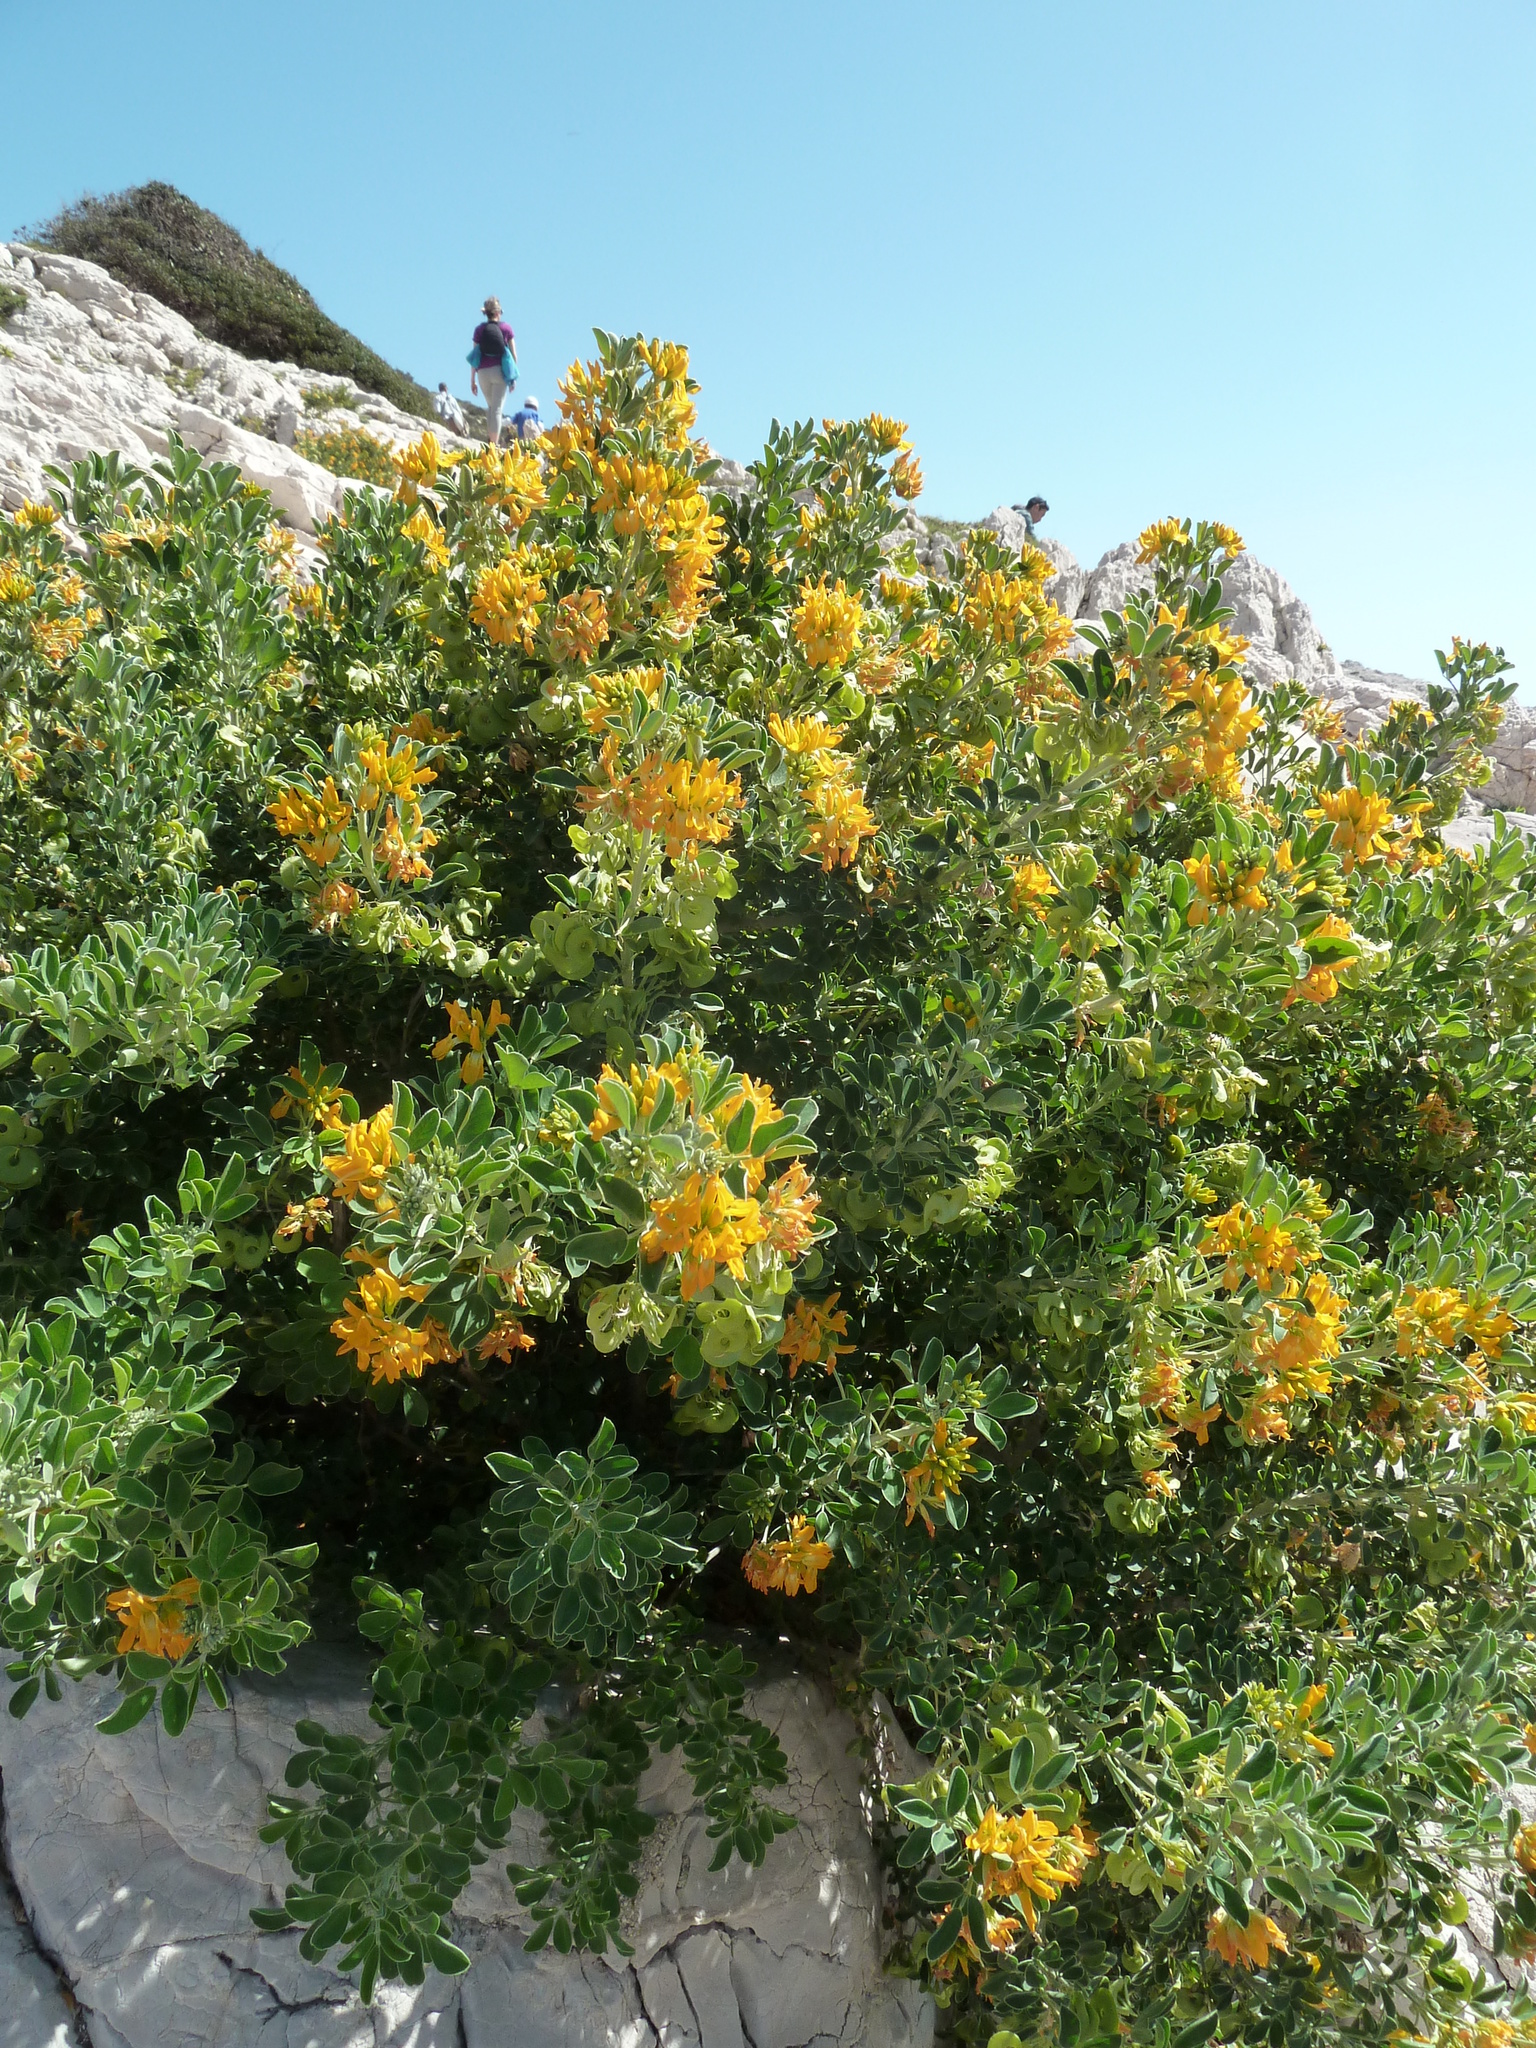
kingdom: Plantae
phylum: Tracheophyta
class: Magnoliopsida
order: Fabales
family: Fabaceae
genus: Medicago
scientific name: Medicago arborea
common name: Moon trefoil
